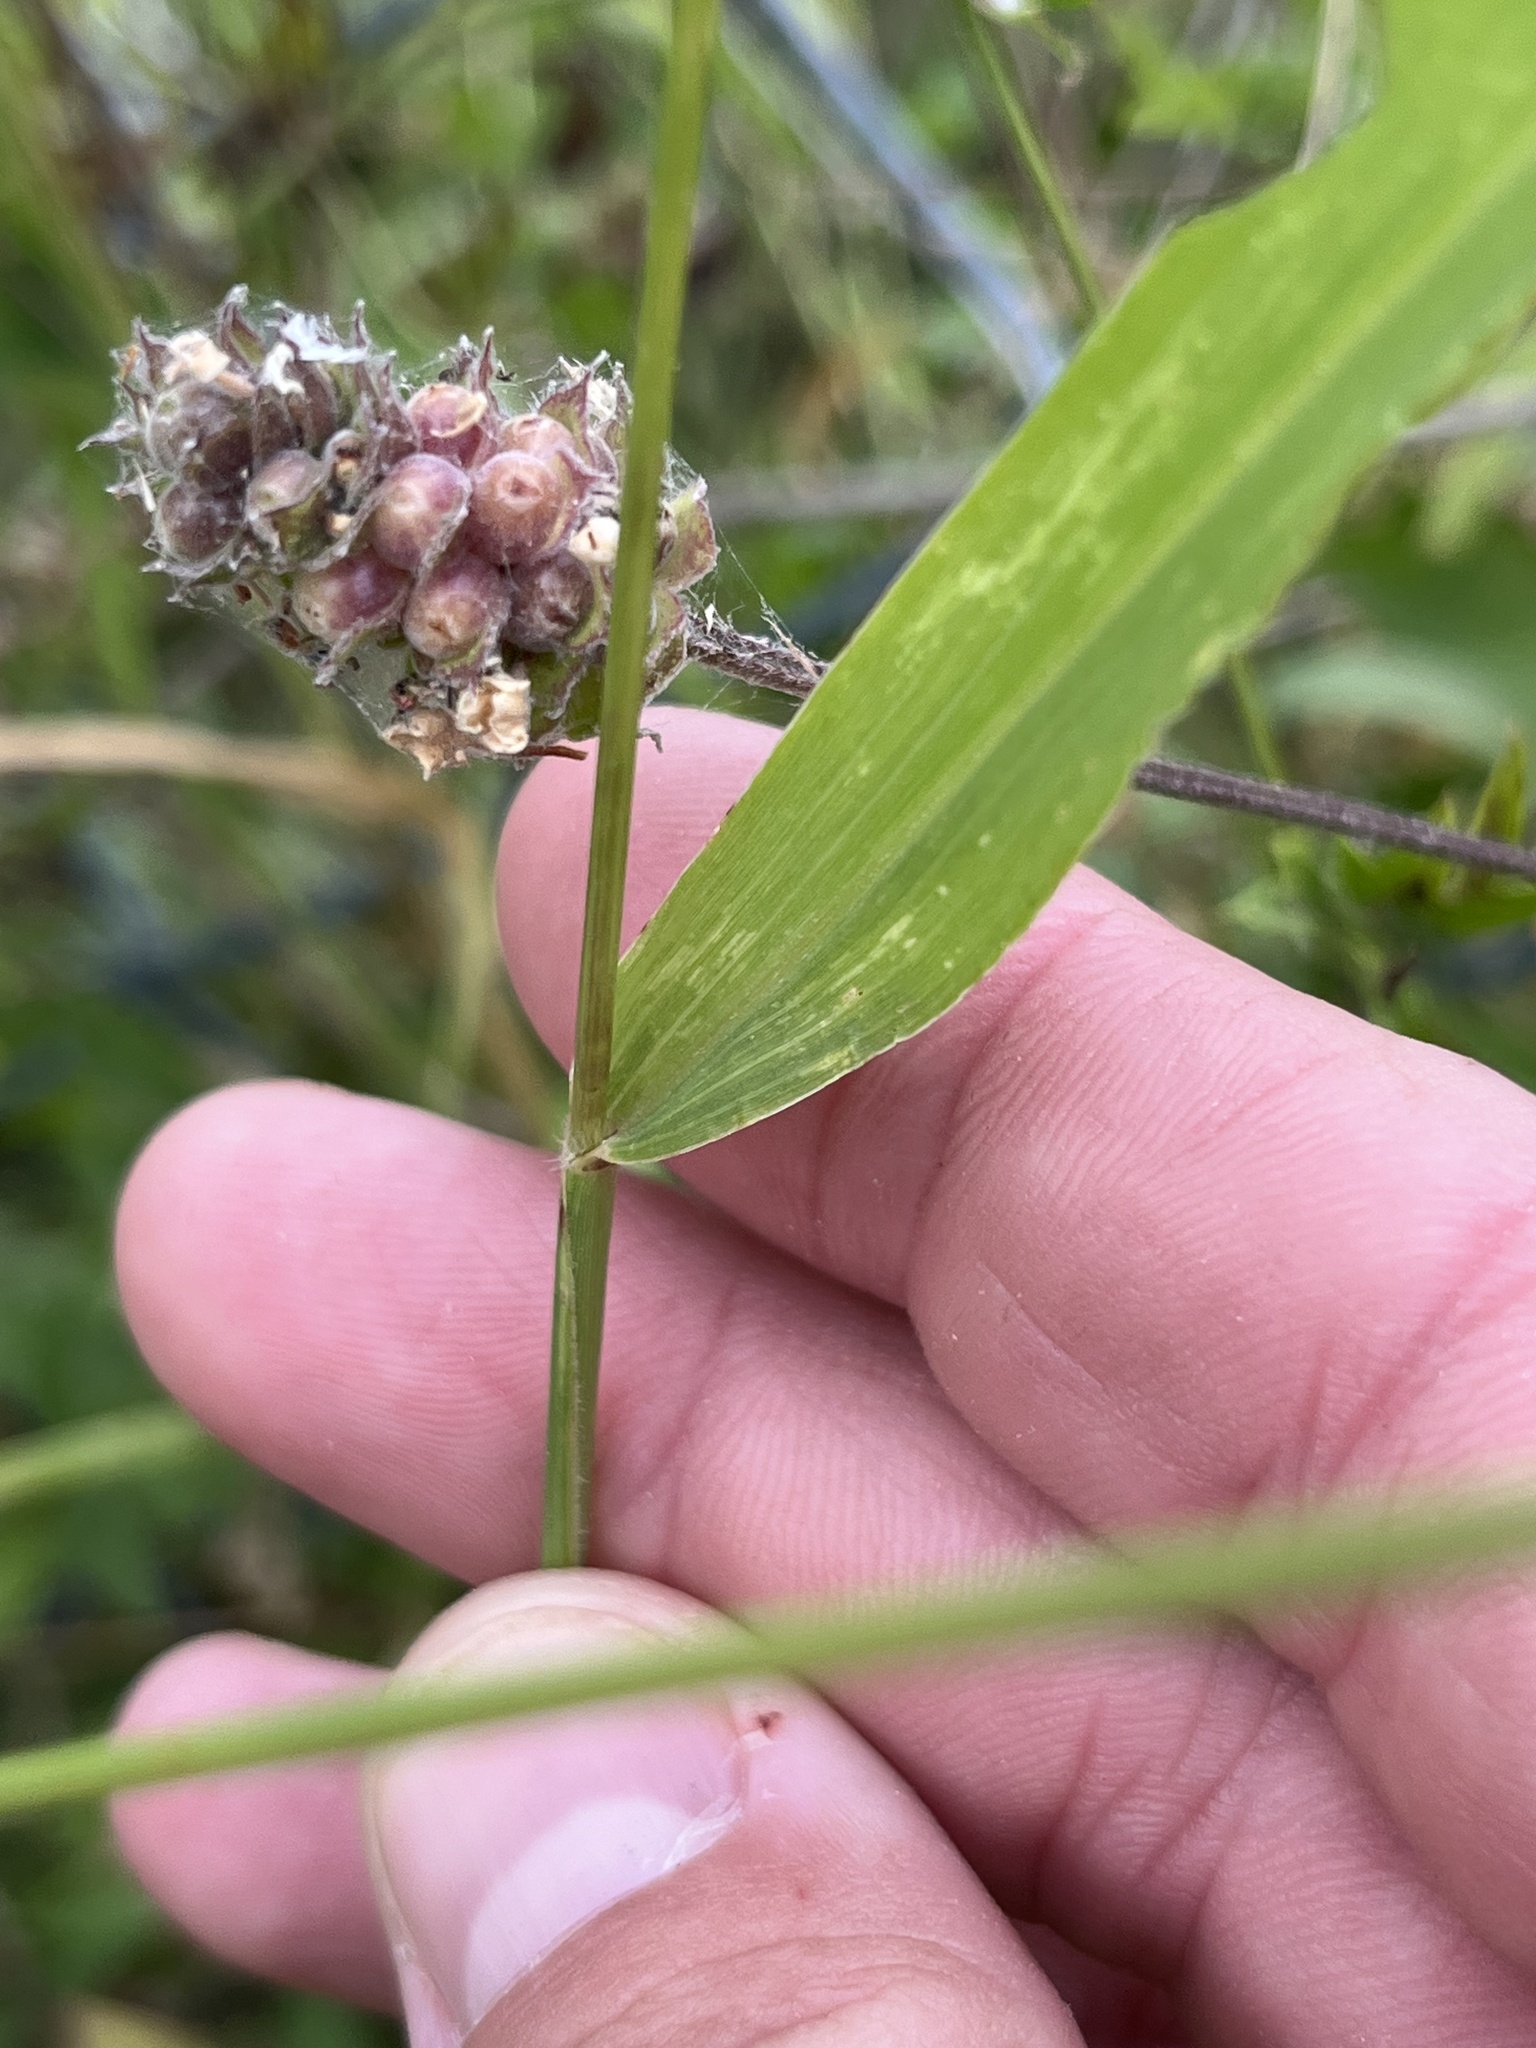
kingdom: Plantae
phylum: Tracheophyta
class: Liliopsida
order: Poales
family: Poaceae
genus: Setaria
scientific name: Setaria scheelei
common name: Southwestern bristle grass
